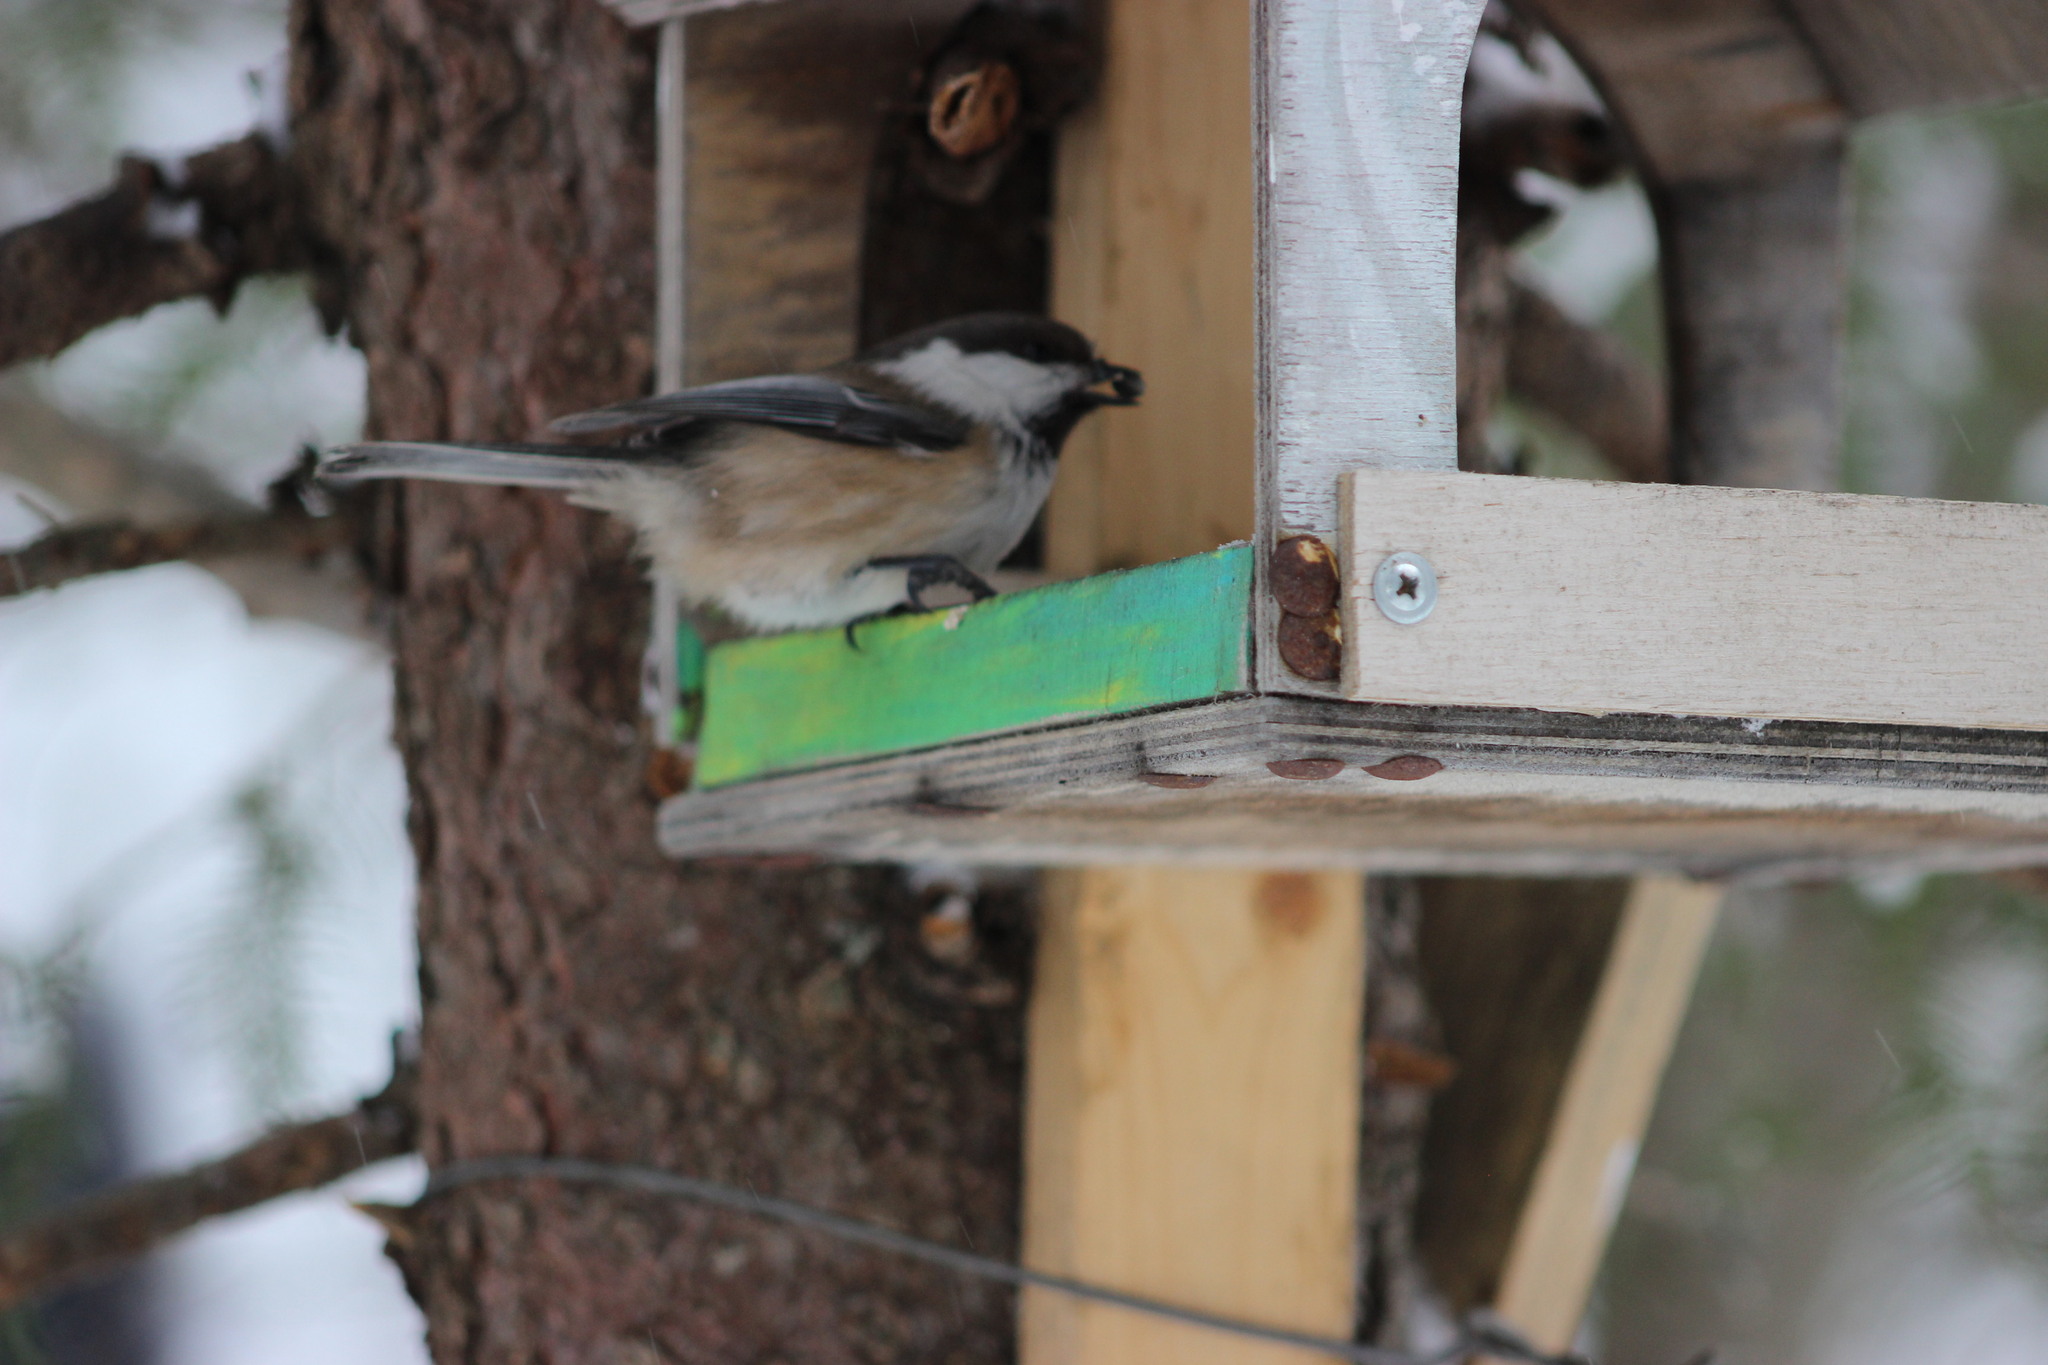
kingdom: Animalia
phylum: Chordata
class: Aves
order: Passeriformes
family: Paridae
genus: Poecile
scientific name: Poecile cinctus
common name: Gray-headed chickadee
